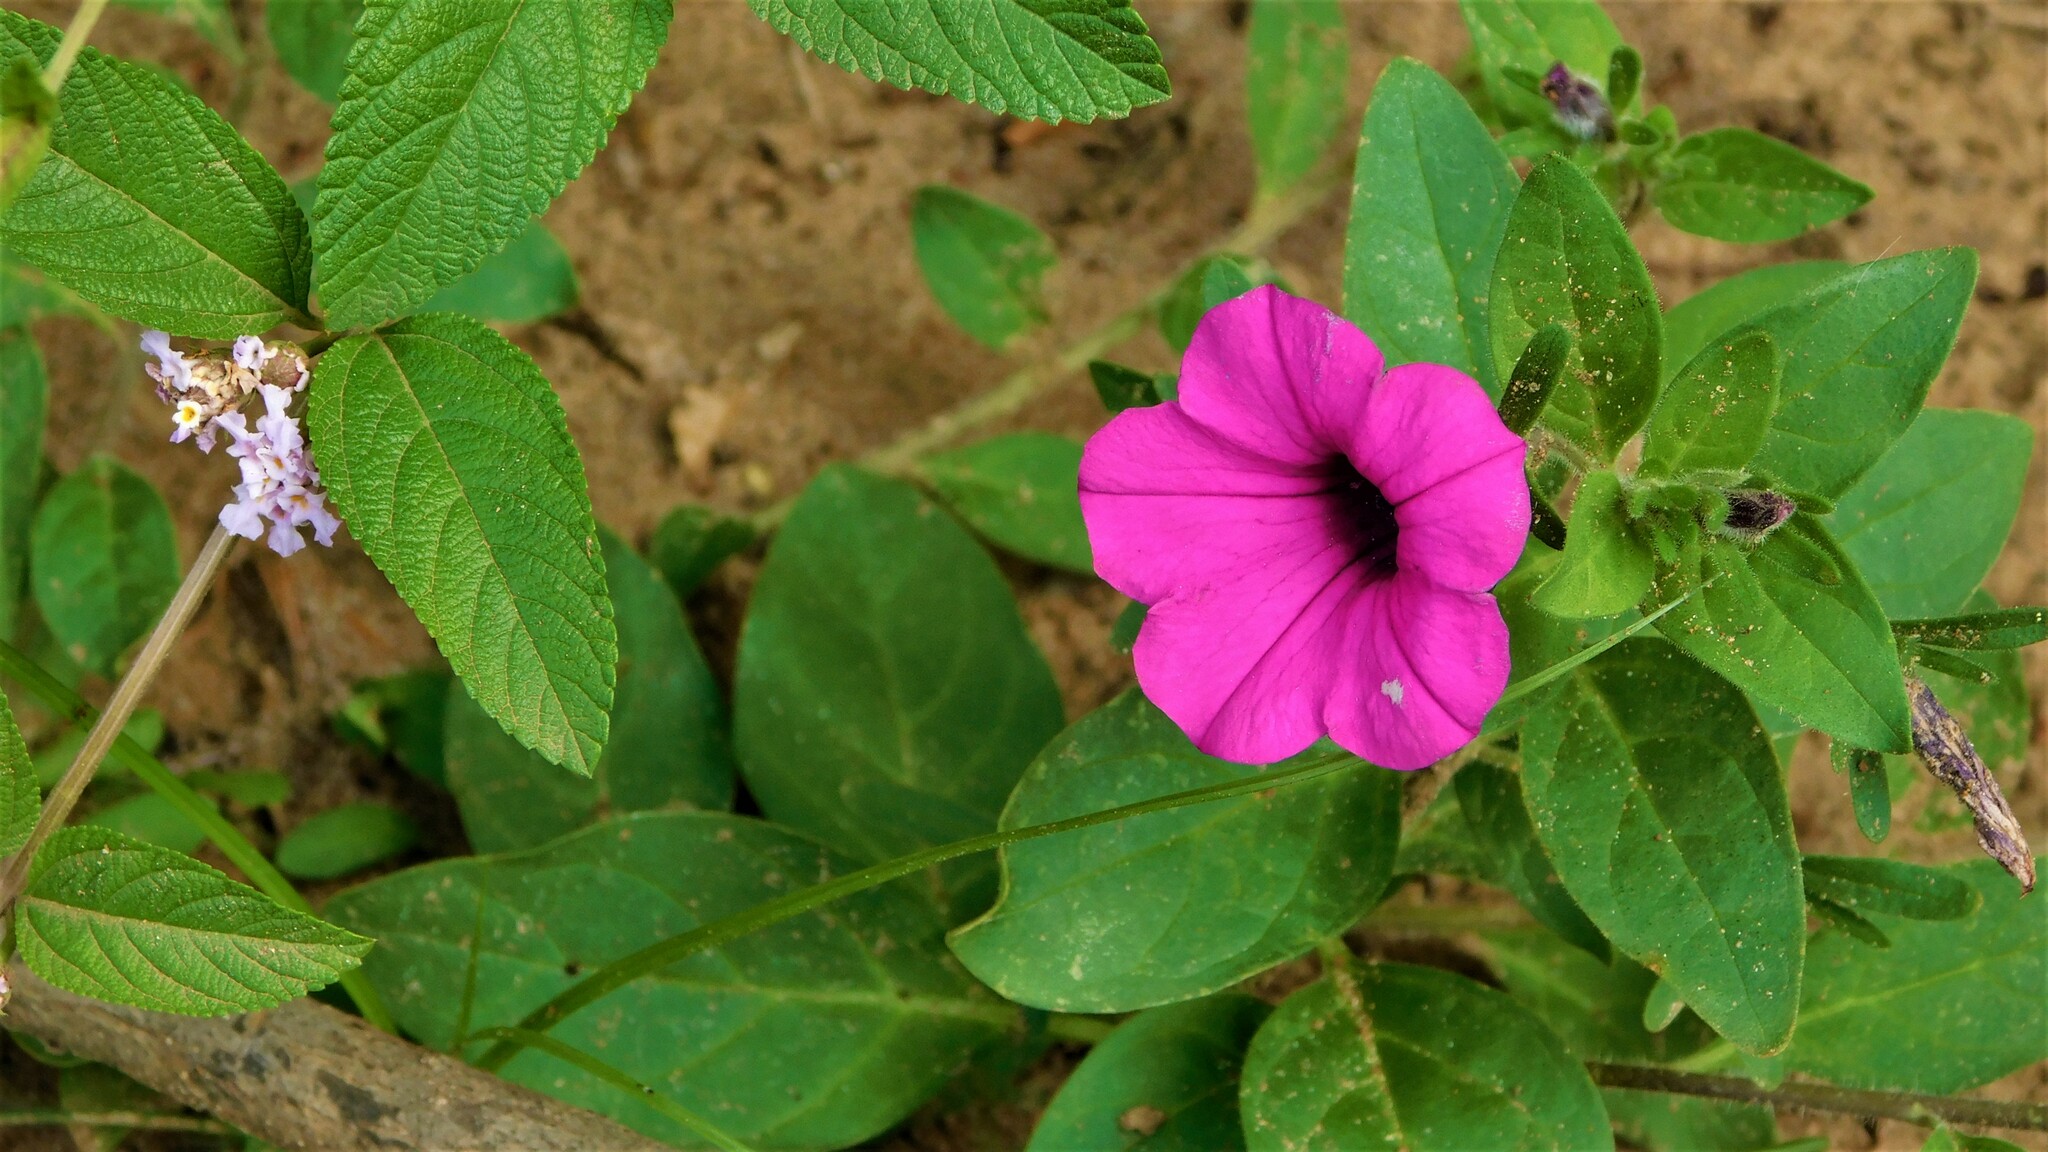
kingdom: Plantae
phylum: Tracheophyta
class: Magnoliopsida
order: Solanales
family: Solanaceae
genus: Petunia
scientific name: Petunia integrifolia
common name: Violet-flower petunia
